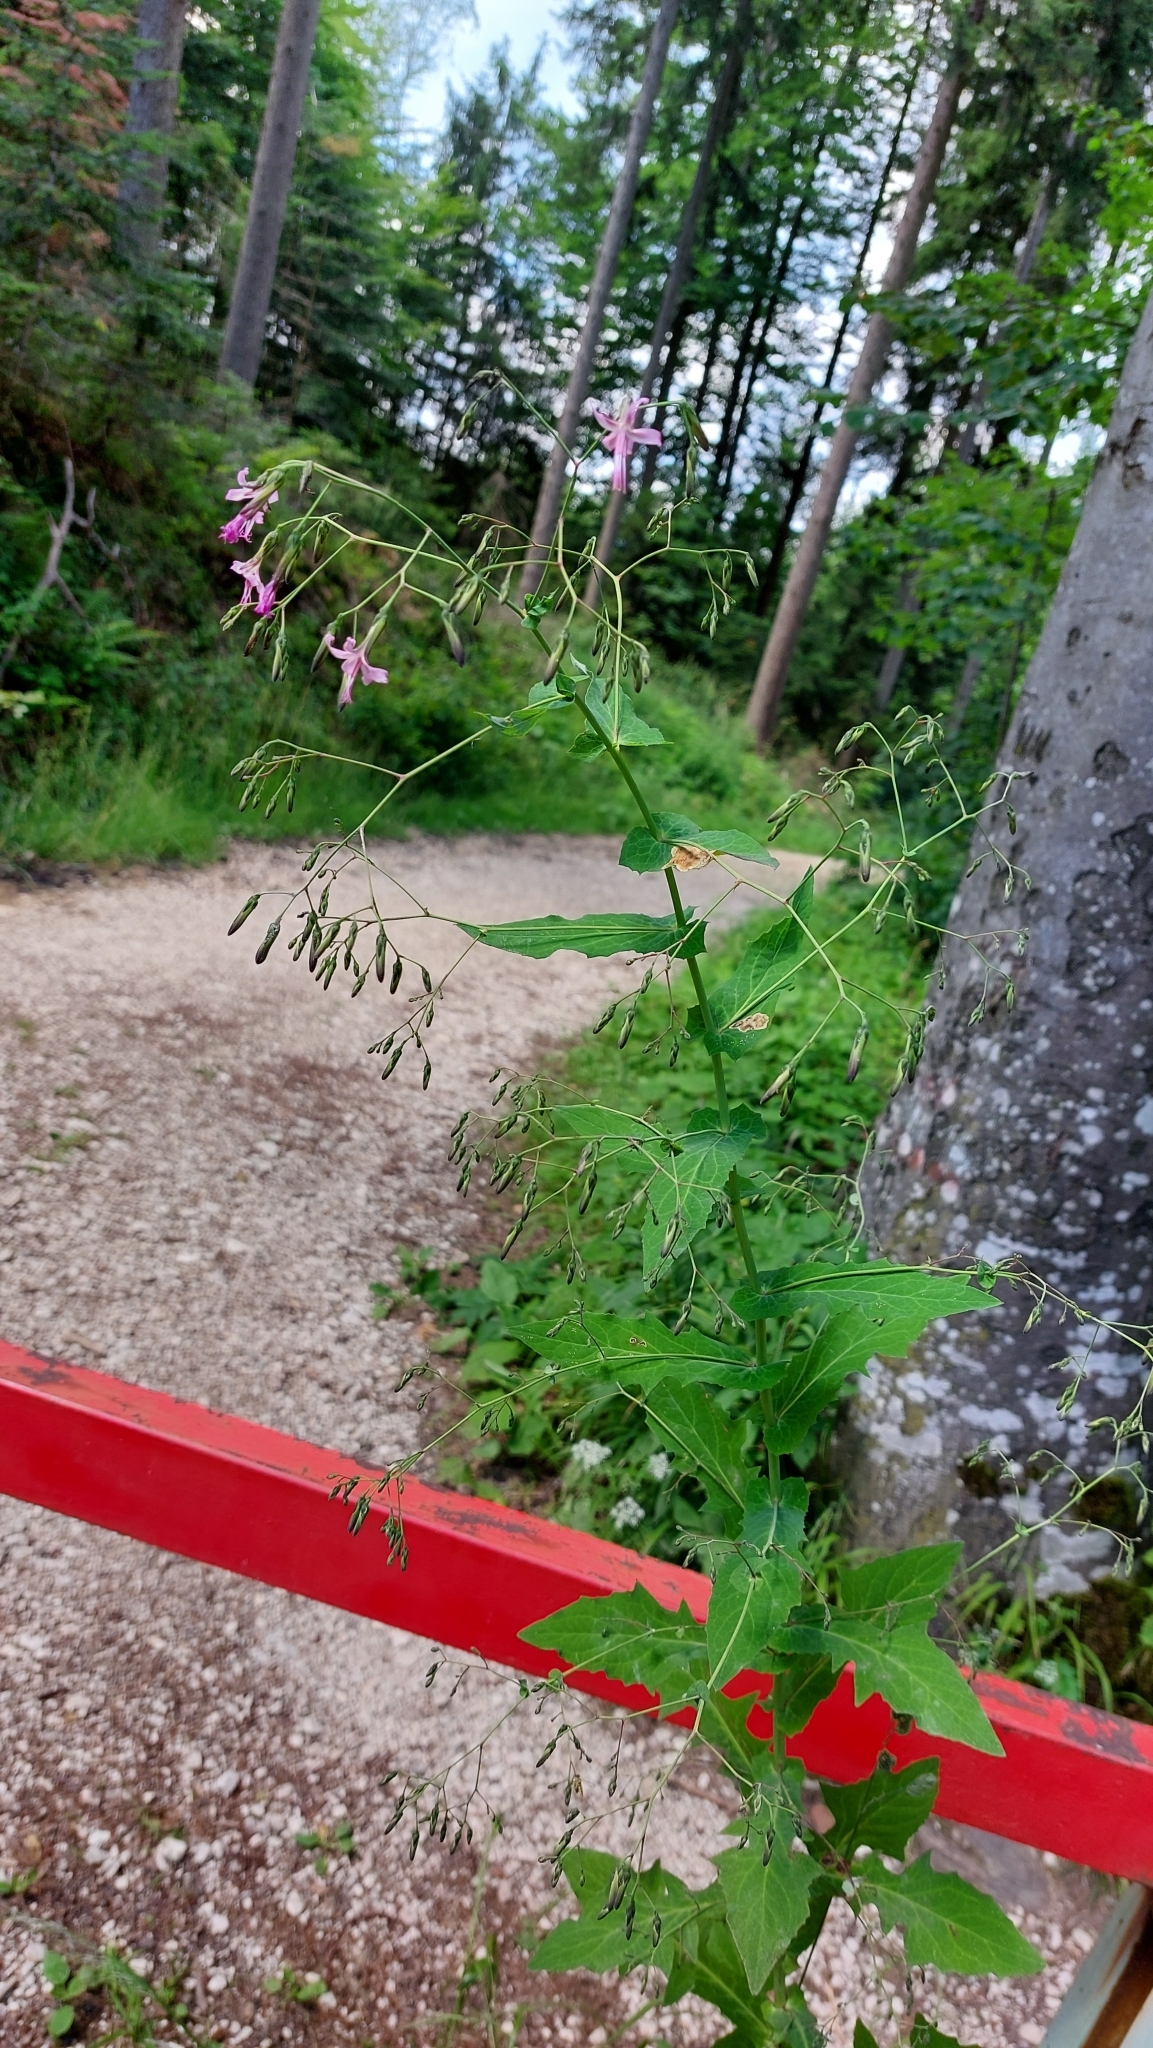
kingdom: Plantae
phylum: Tracheophyta
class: Magnoliopsida
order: Asterales
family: Asteraceae
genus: Prenanthes
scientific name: Prenanthes purpurea
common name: Purple lettuce
